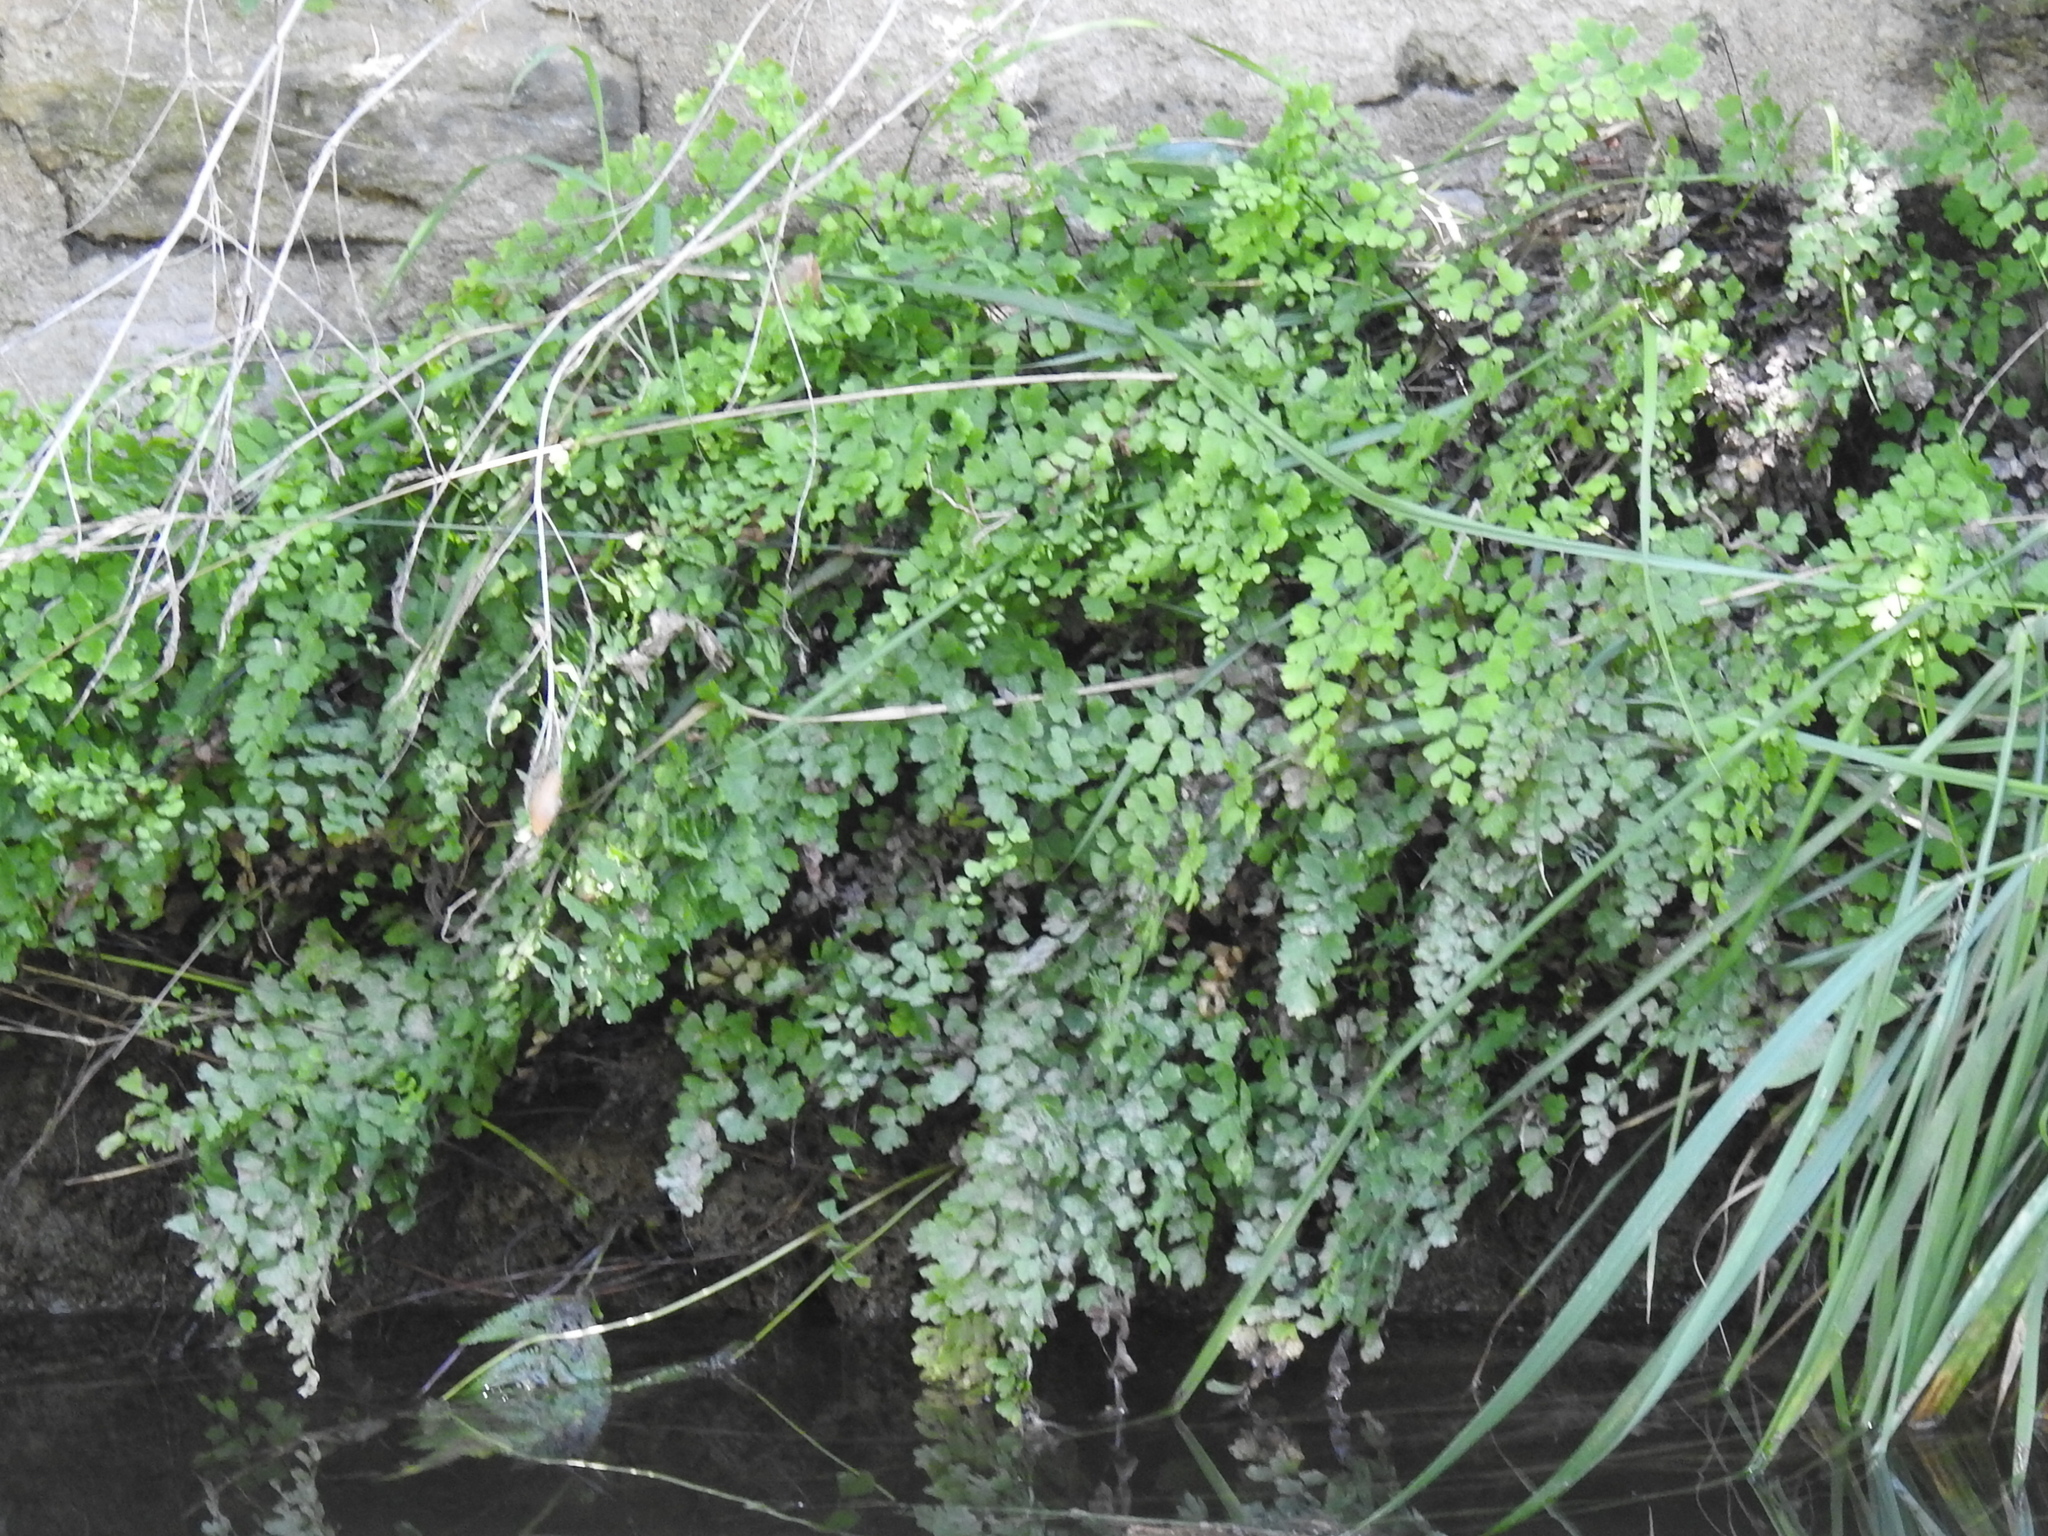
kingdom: Plantae
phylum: Tracheophyta
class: Polypodiopsida
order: Polypodiales
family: Pteridaceae
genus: Adiantum
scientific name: Adiantum capillus-veneris
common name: Maidenhair fern
